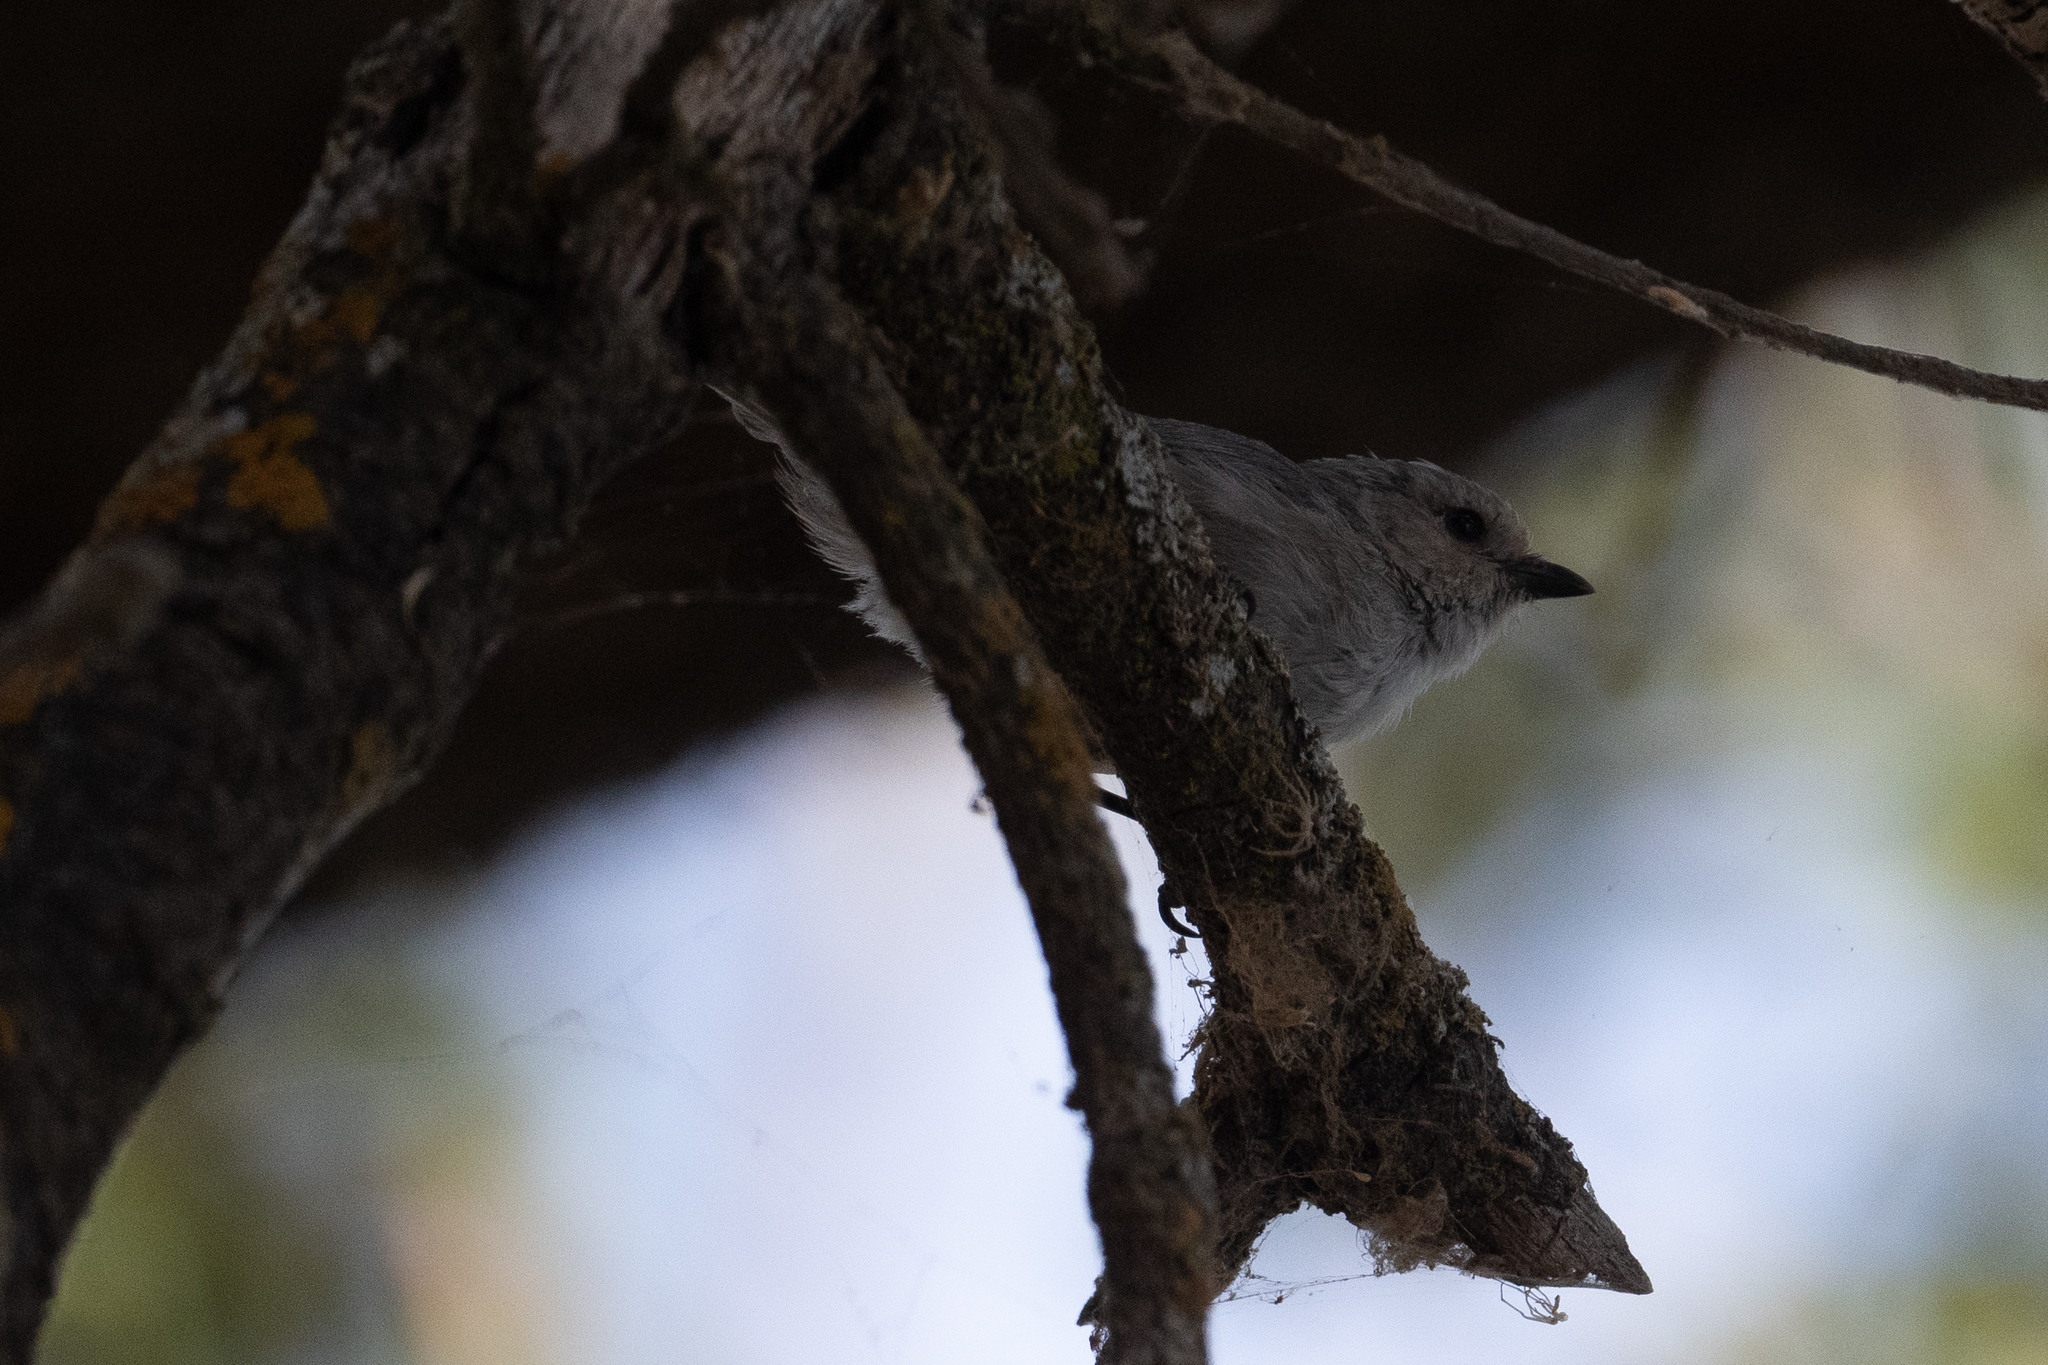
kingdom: Animalia
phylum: Chordata
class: Aves
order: Passeriformes
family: Aegithalidae
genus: Psaltriparus
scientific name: Psaltriparus minimus
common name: American bushtit
